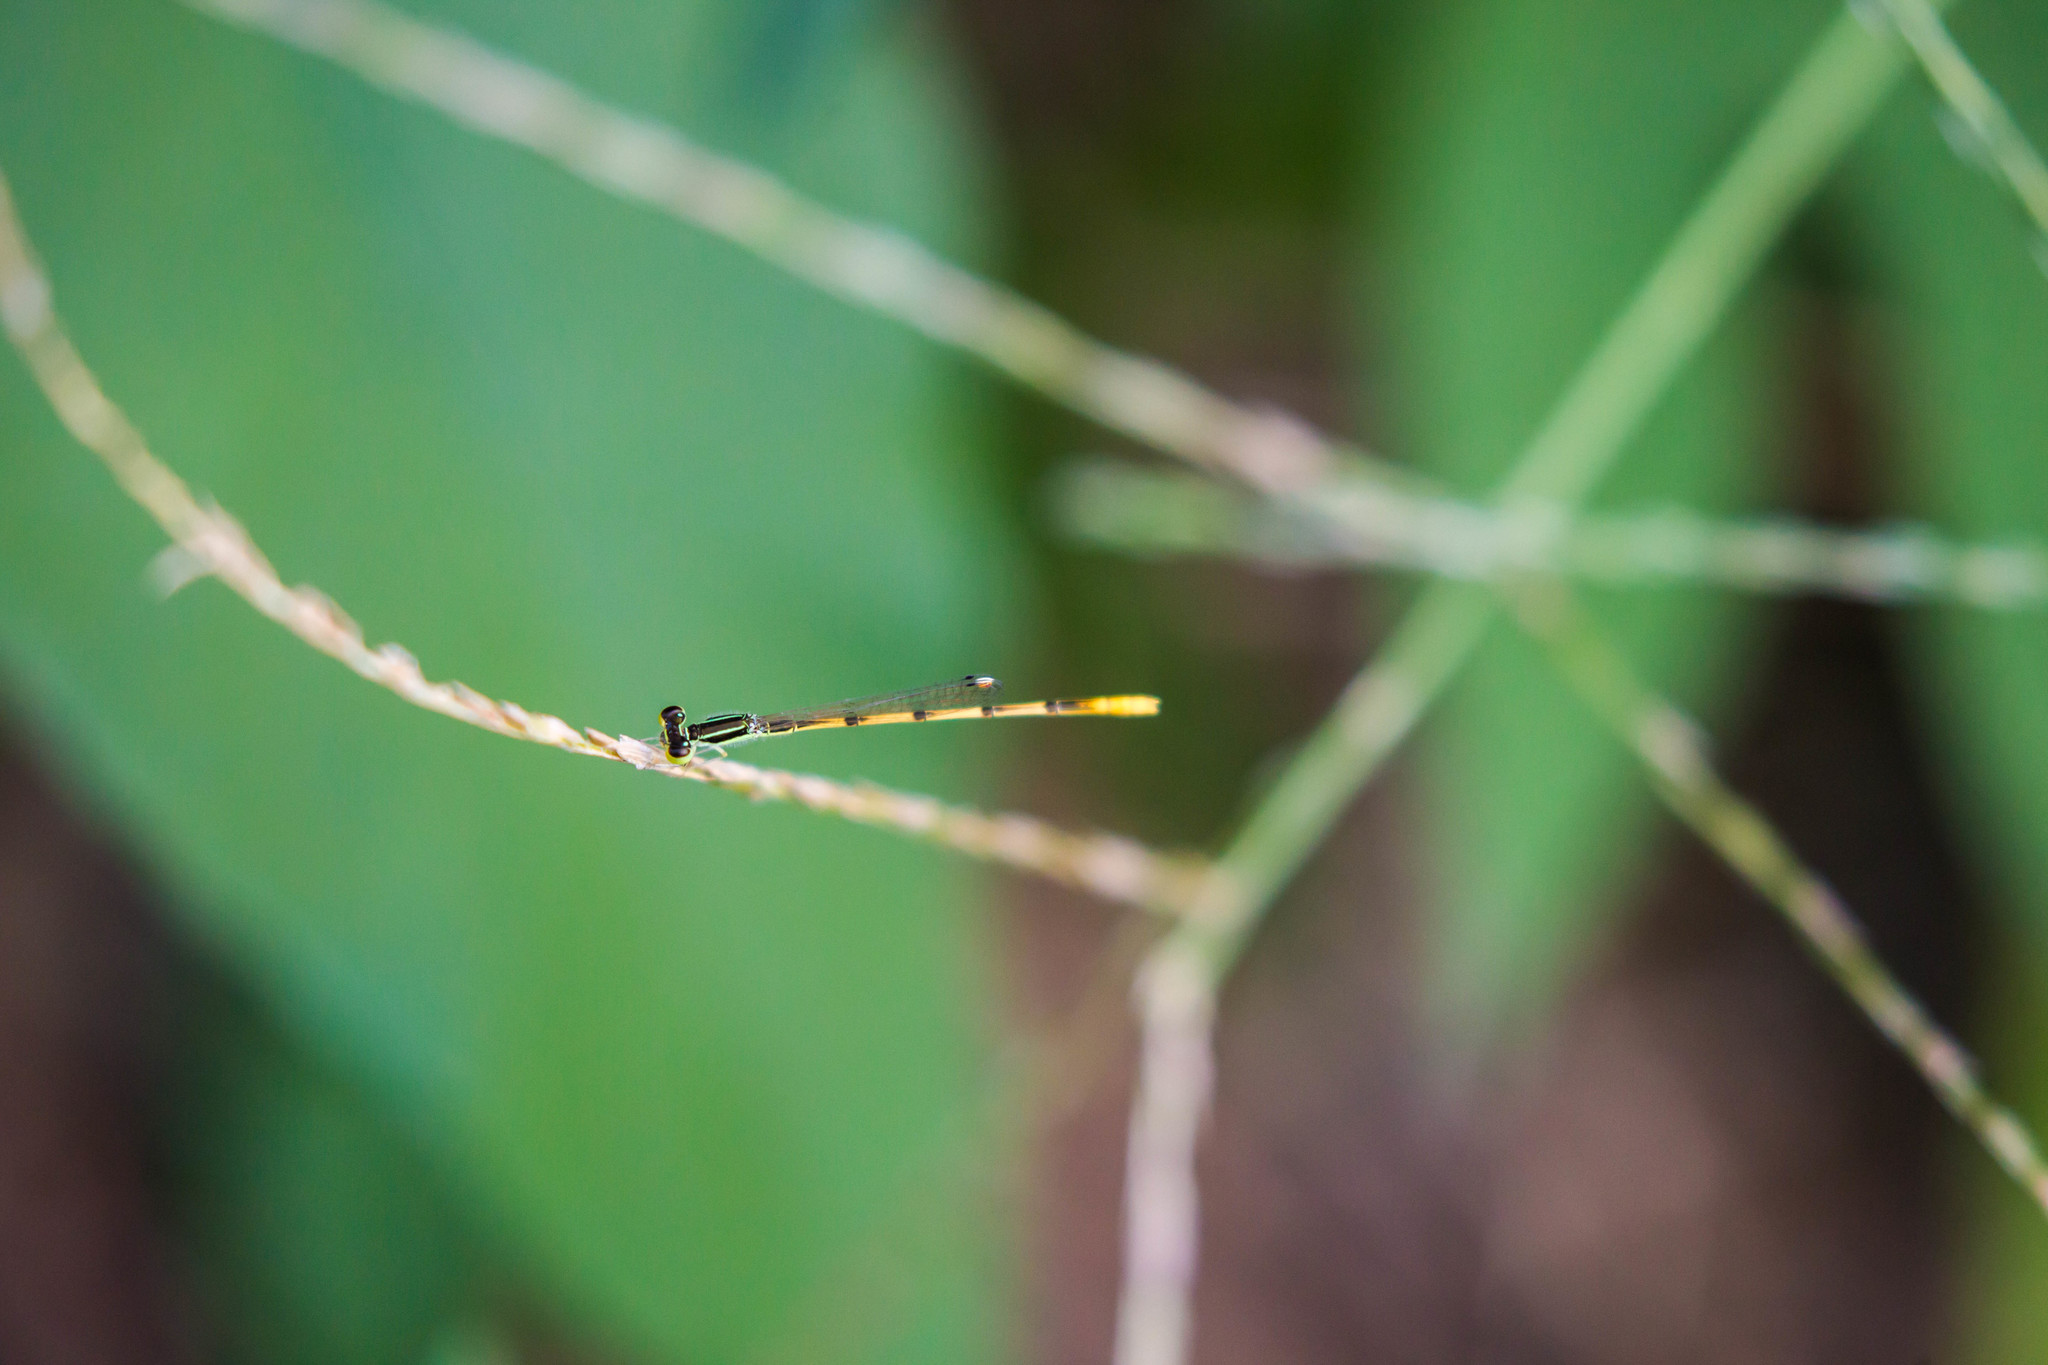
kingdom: Animalia
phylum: Arthropoda
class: Insecta
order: Odonata
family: Coenagrionidae
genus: Ischnura
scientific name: Ischnura hastata
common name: Citrine forktail
